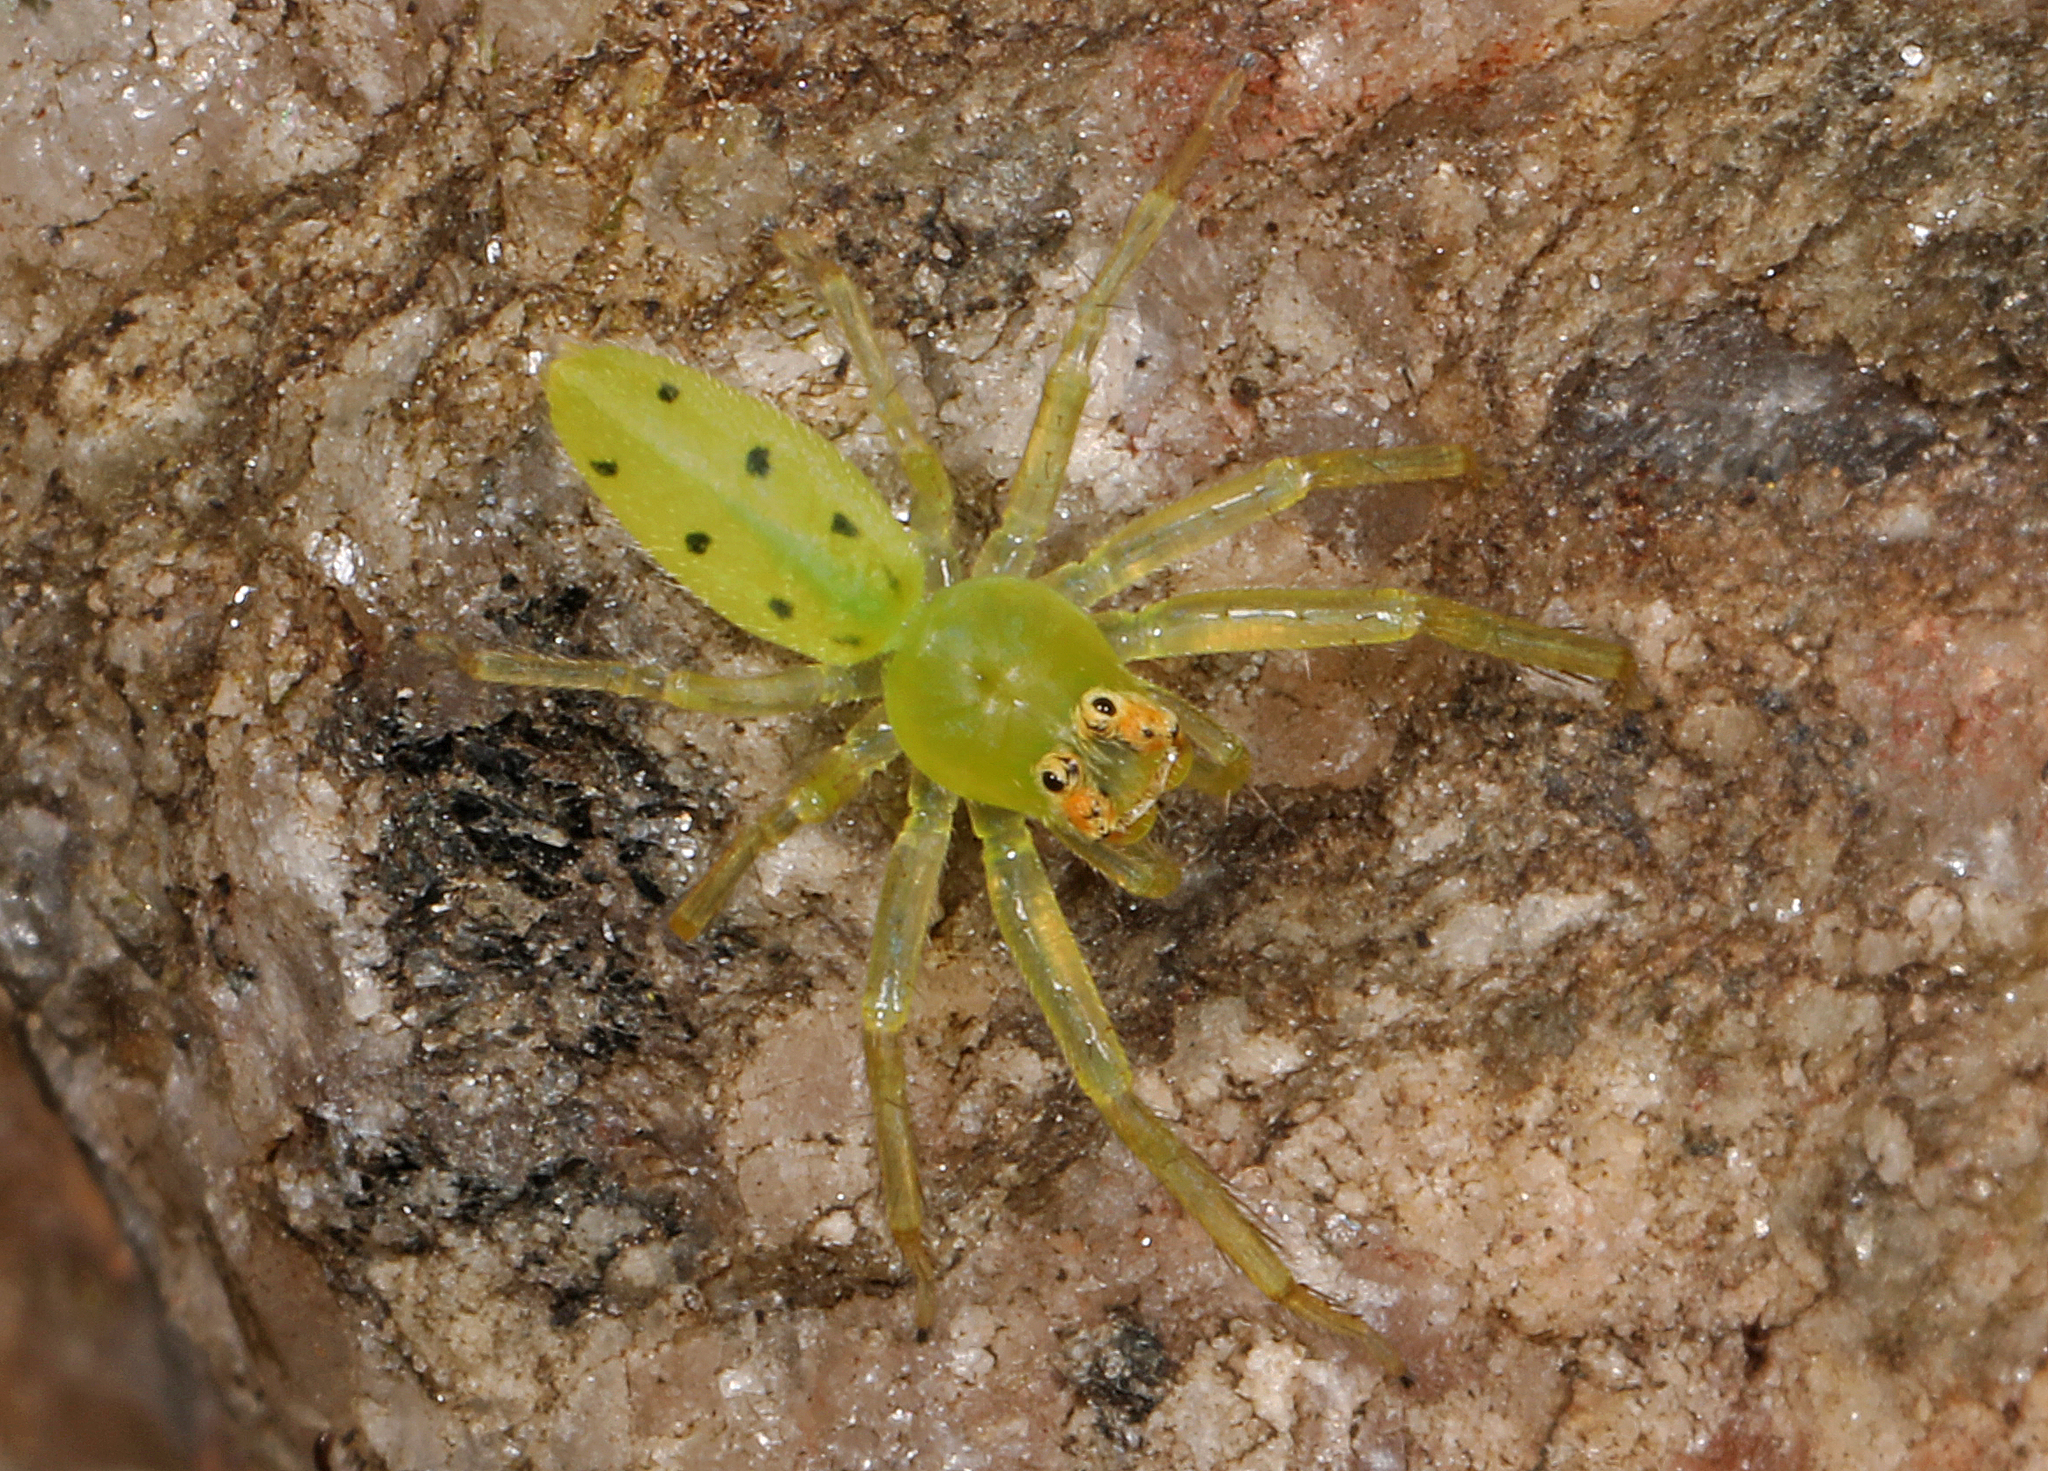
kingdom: Animalia
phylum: Arthropoda
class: Arachnida
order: Araneae
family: Salticidae
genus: Lyssomanes
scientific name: Lyssomanes viridis
